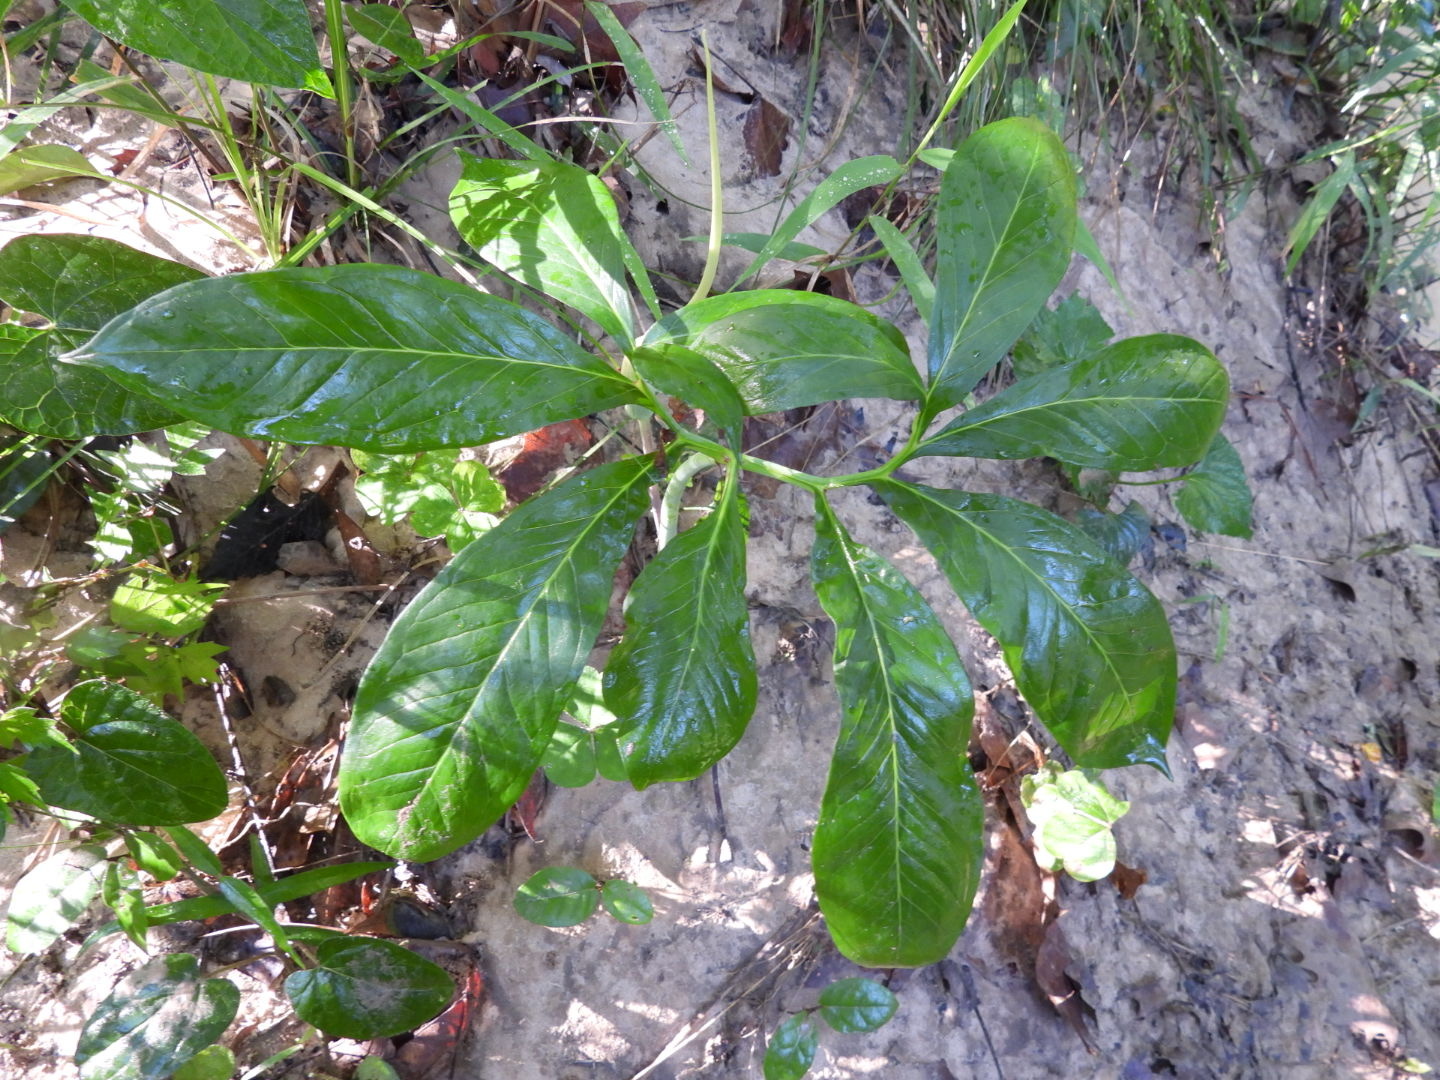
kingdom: Plantae
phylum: Tracheophyta
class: Liliopsida
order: Alismatales
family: Araceae
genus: Arisaema
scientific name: Arisaema dracontium
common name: Dragon-arum
